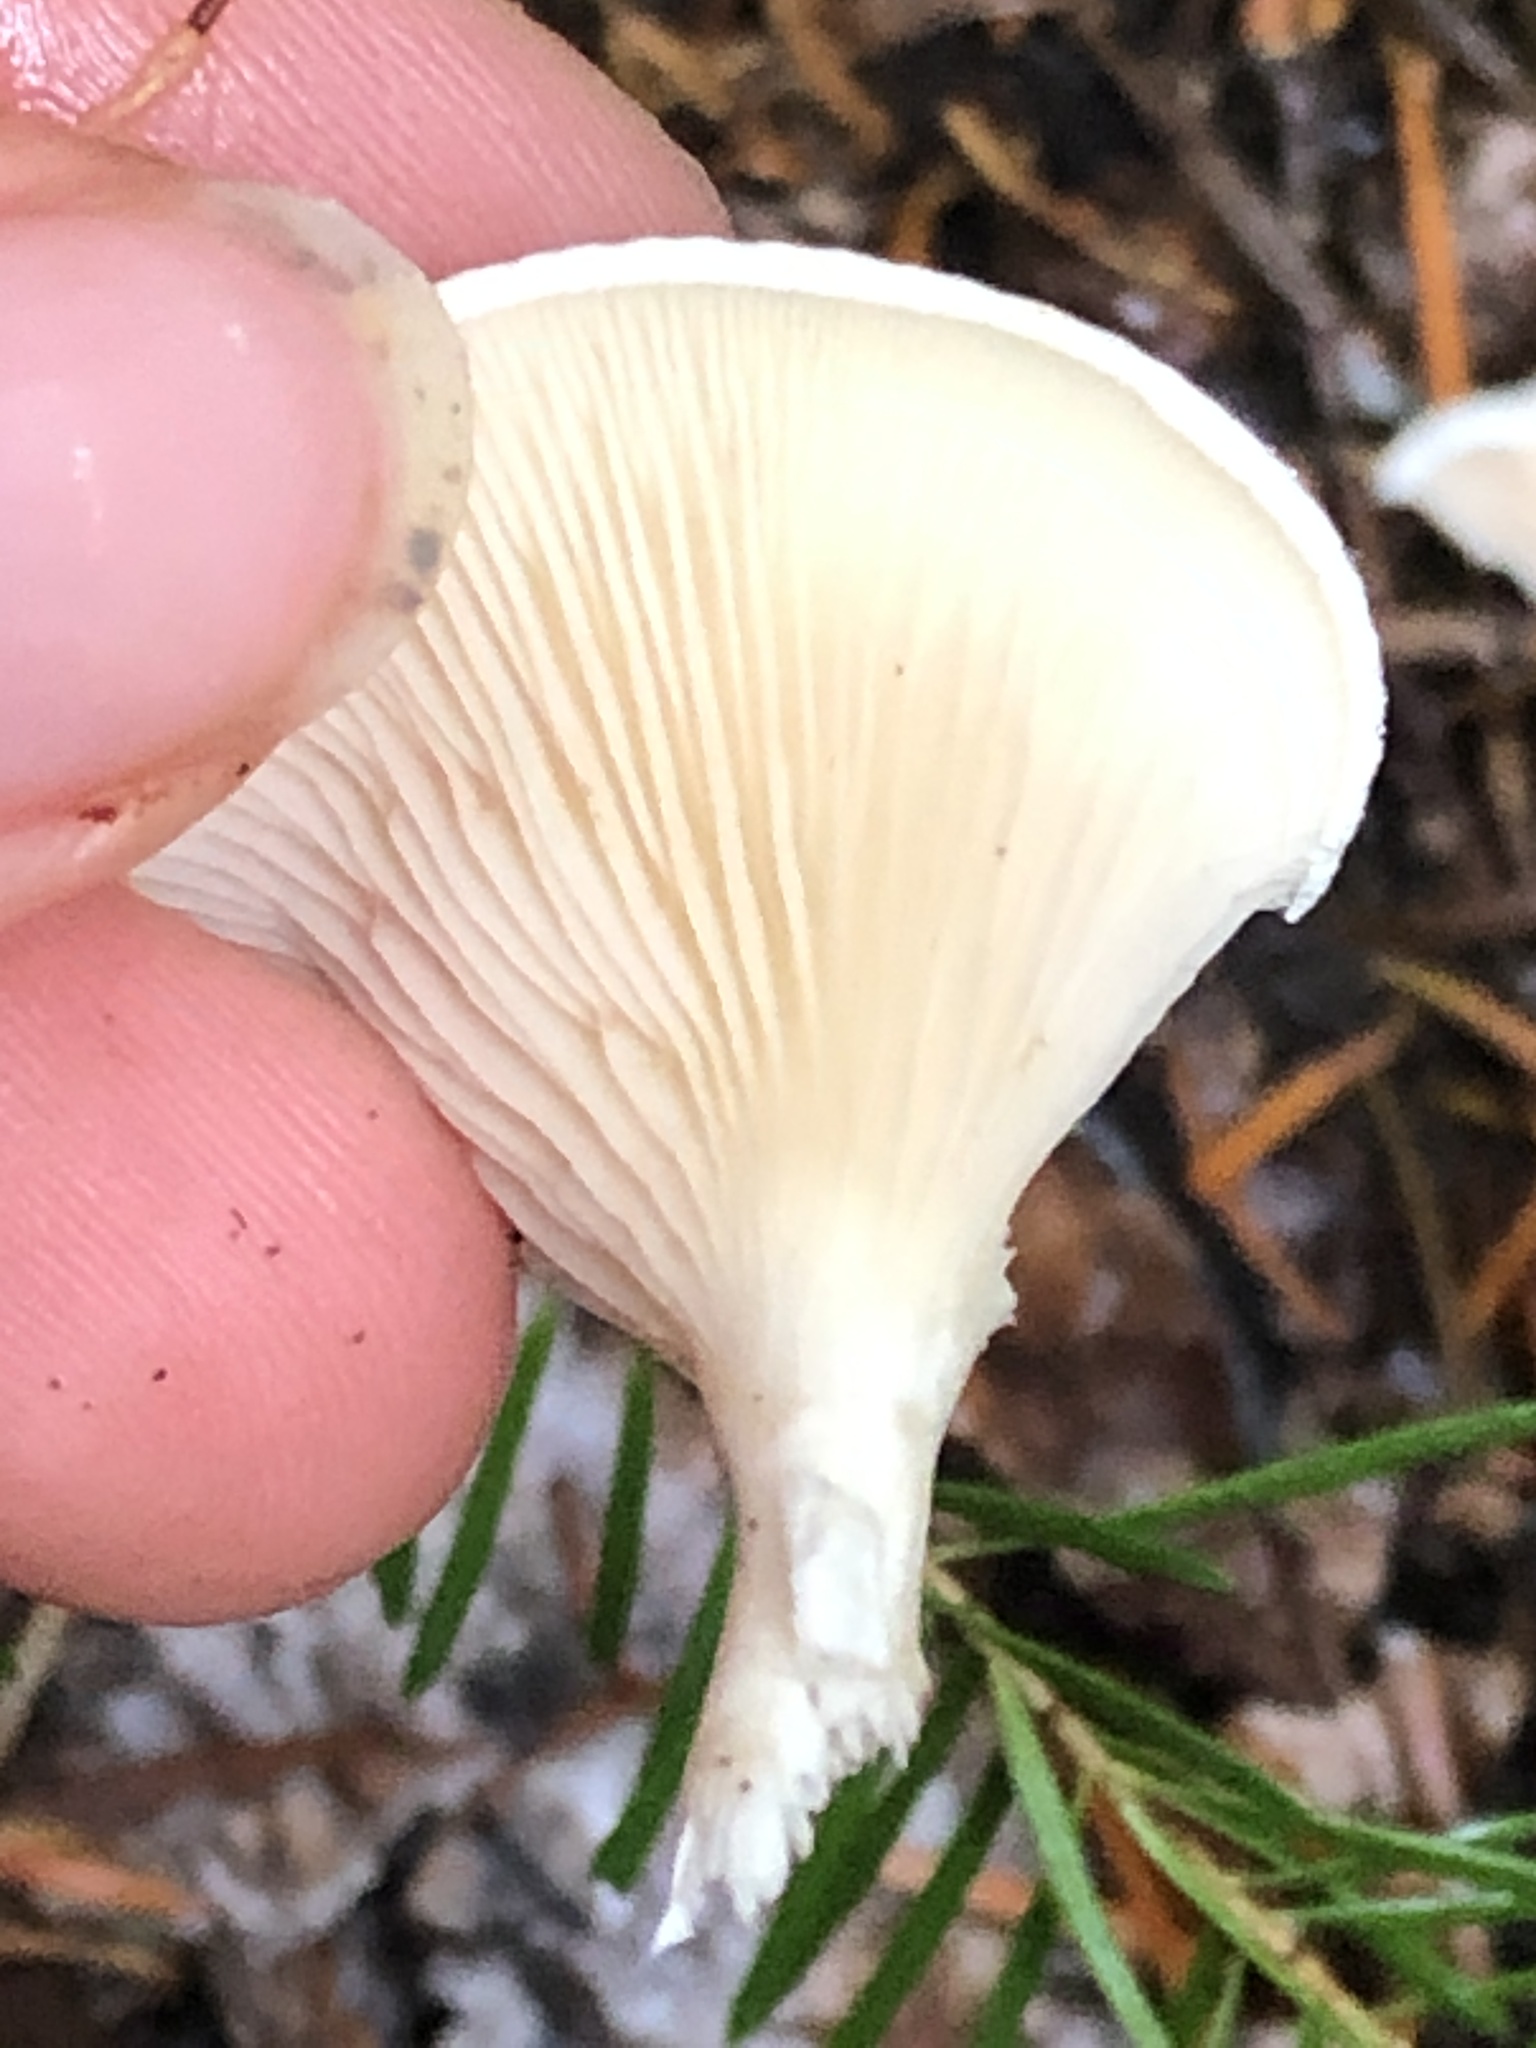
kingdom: Fungi
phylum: Basidiomycota
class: Agaricomycetes
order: Agaricales
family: Entolomataceae
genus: Clitopilus
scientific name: Clitopilus prunulus
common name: The miller
